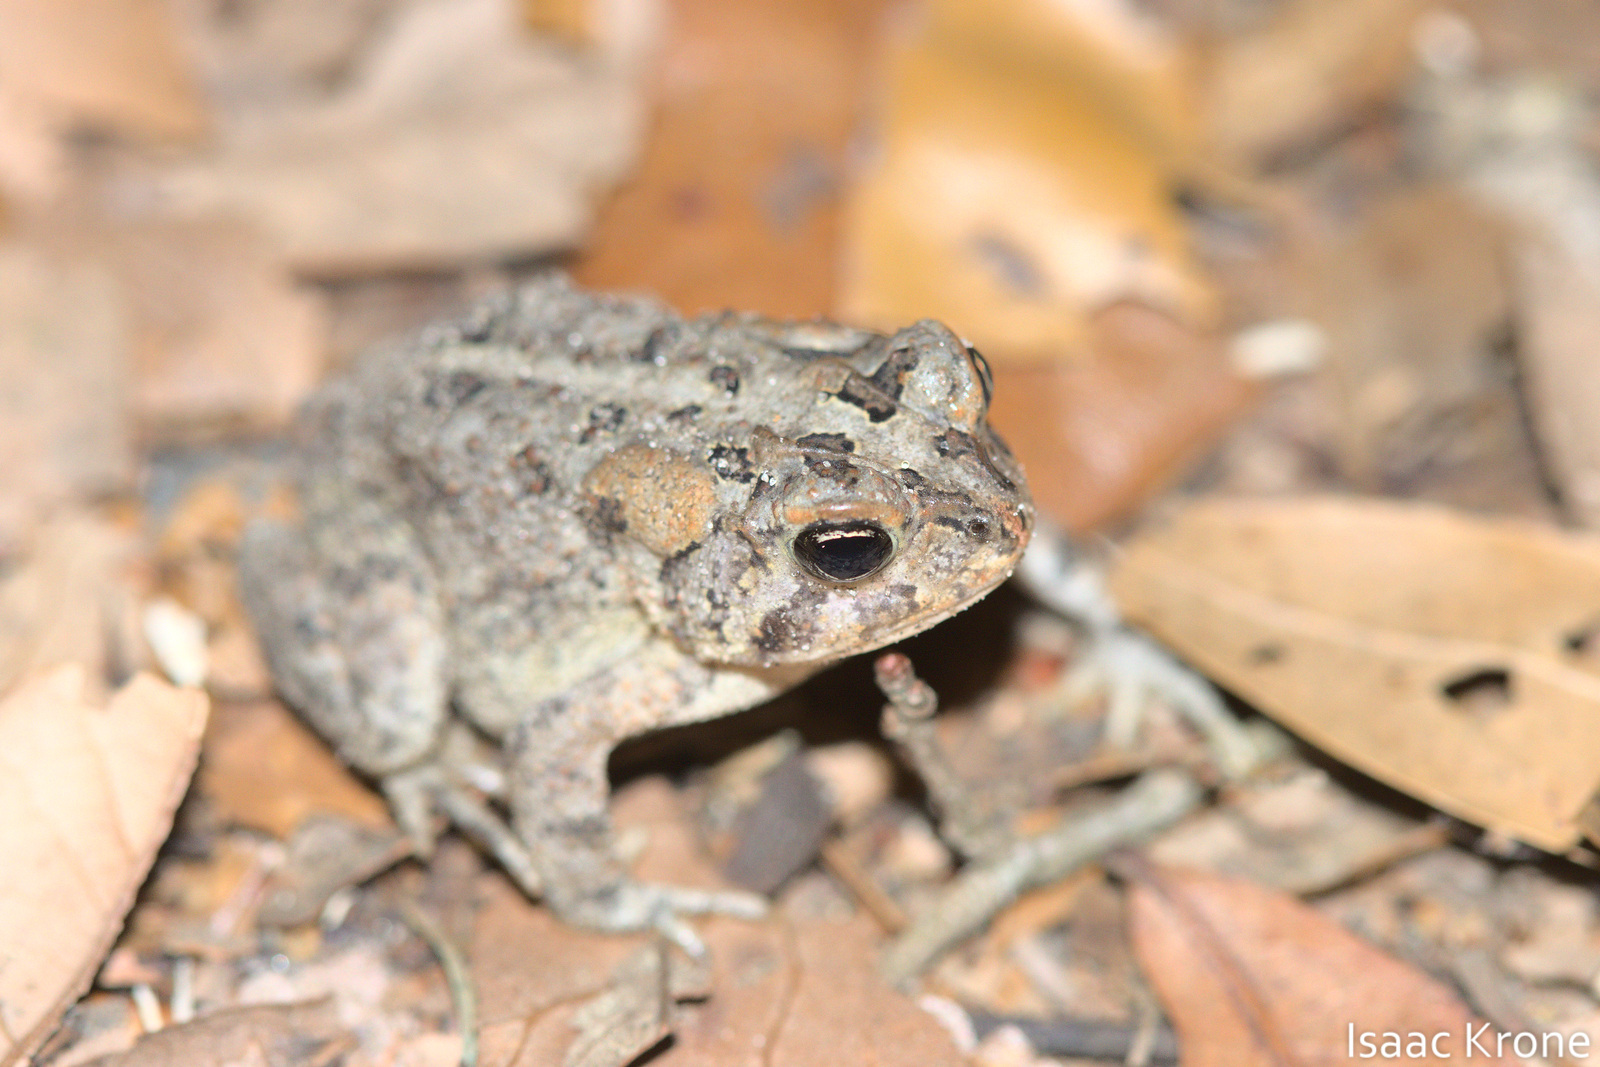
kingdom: Animalia
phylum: Chordata
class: Amphibia
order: Anura
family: Bufonidae
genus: Anaxyrus
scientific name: Anaxyrus terrestris
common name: Southern toad
